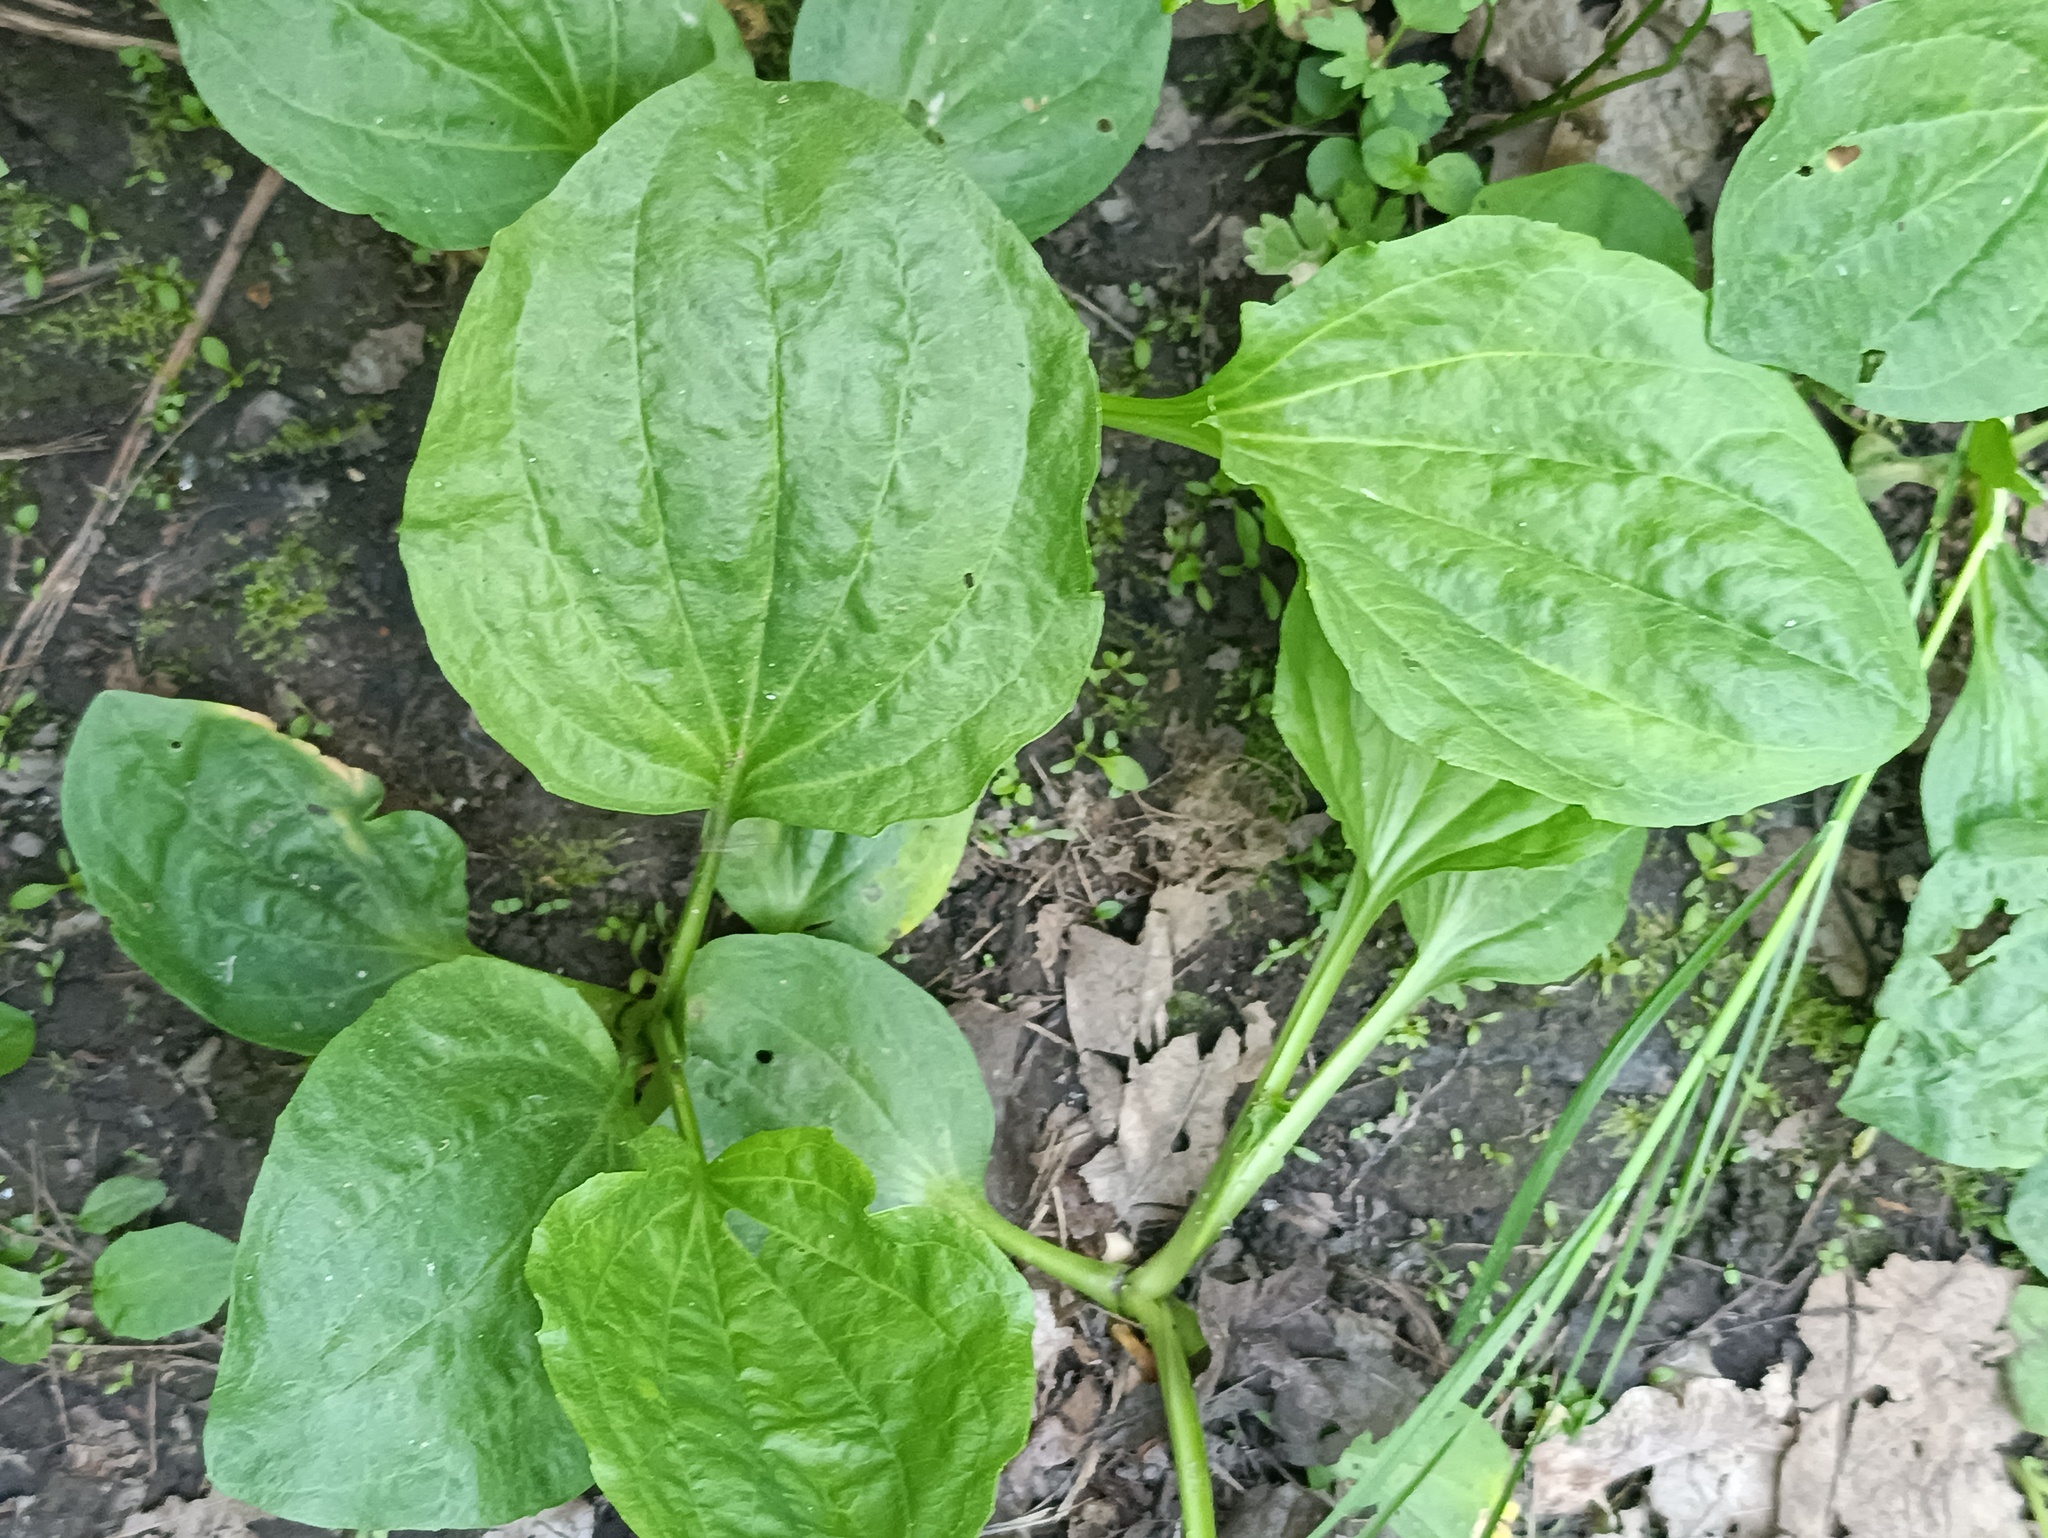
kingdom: Plantae
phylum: Tracheophyta
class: Magnoliopsida
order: Lamiales
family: Plantaginaceae
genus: Plantago
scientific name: Plantago major
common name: Common plantain
